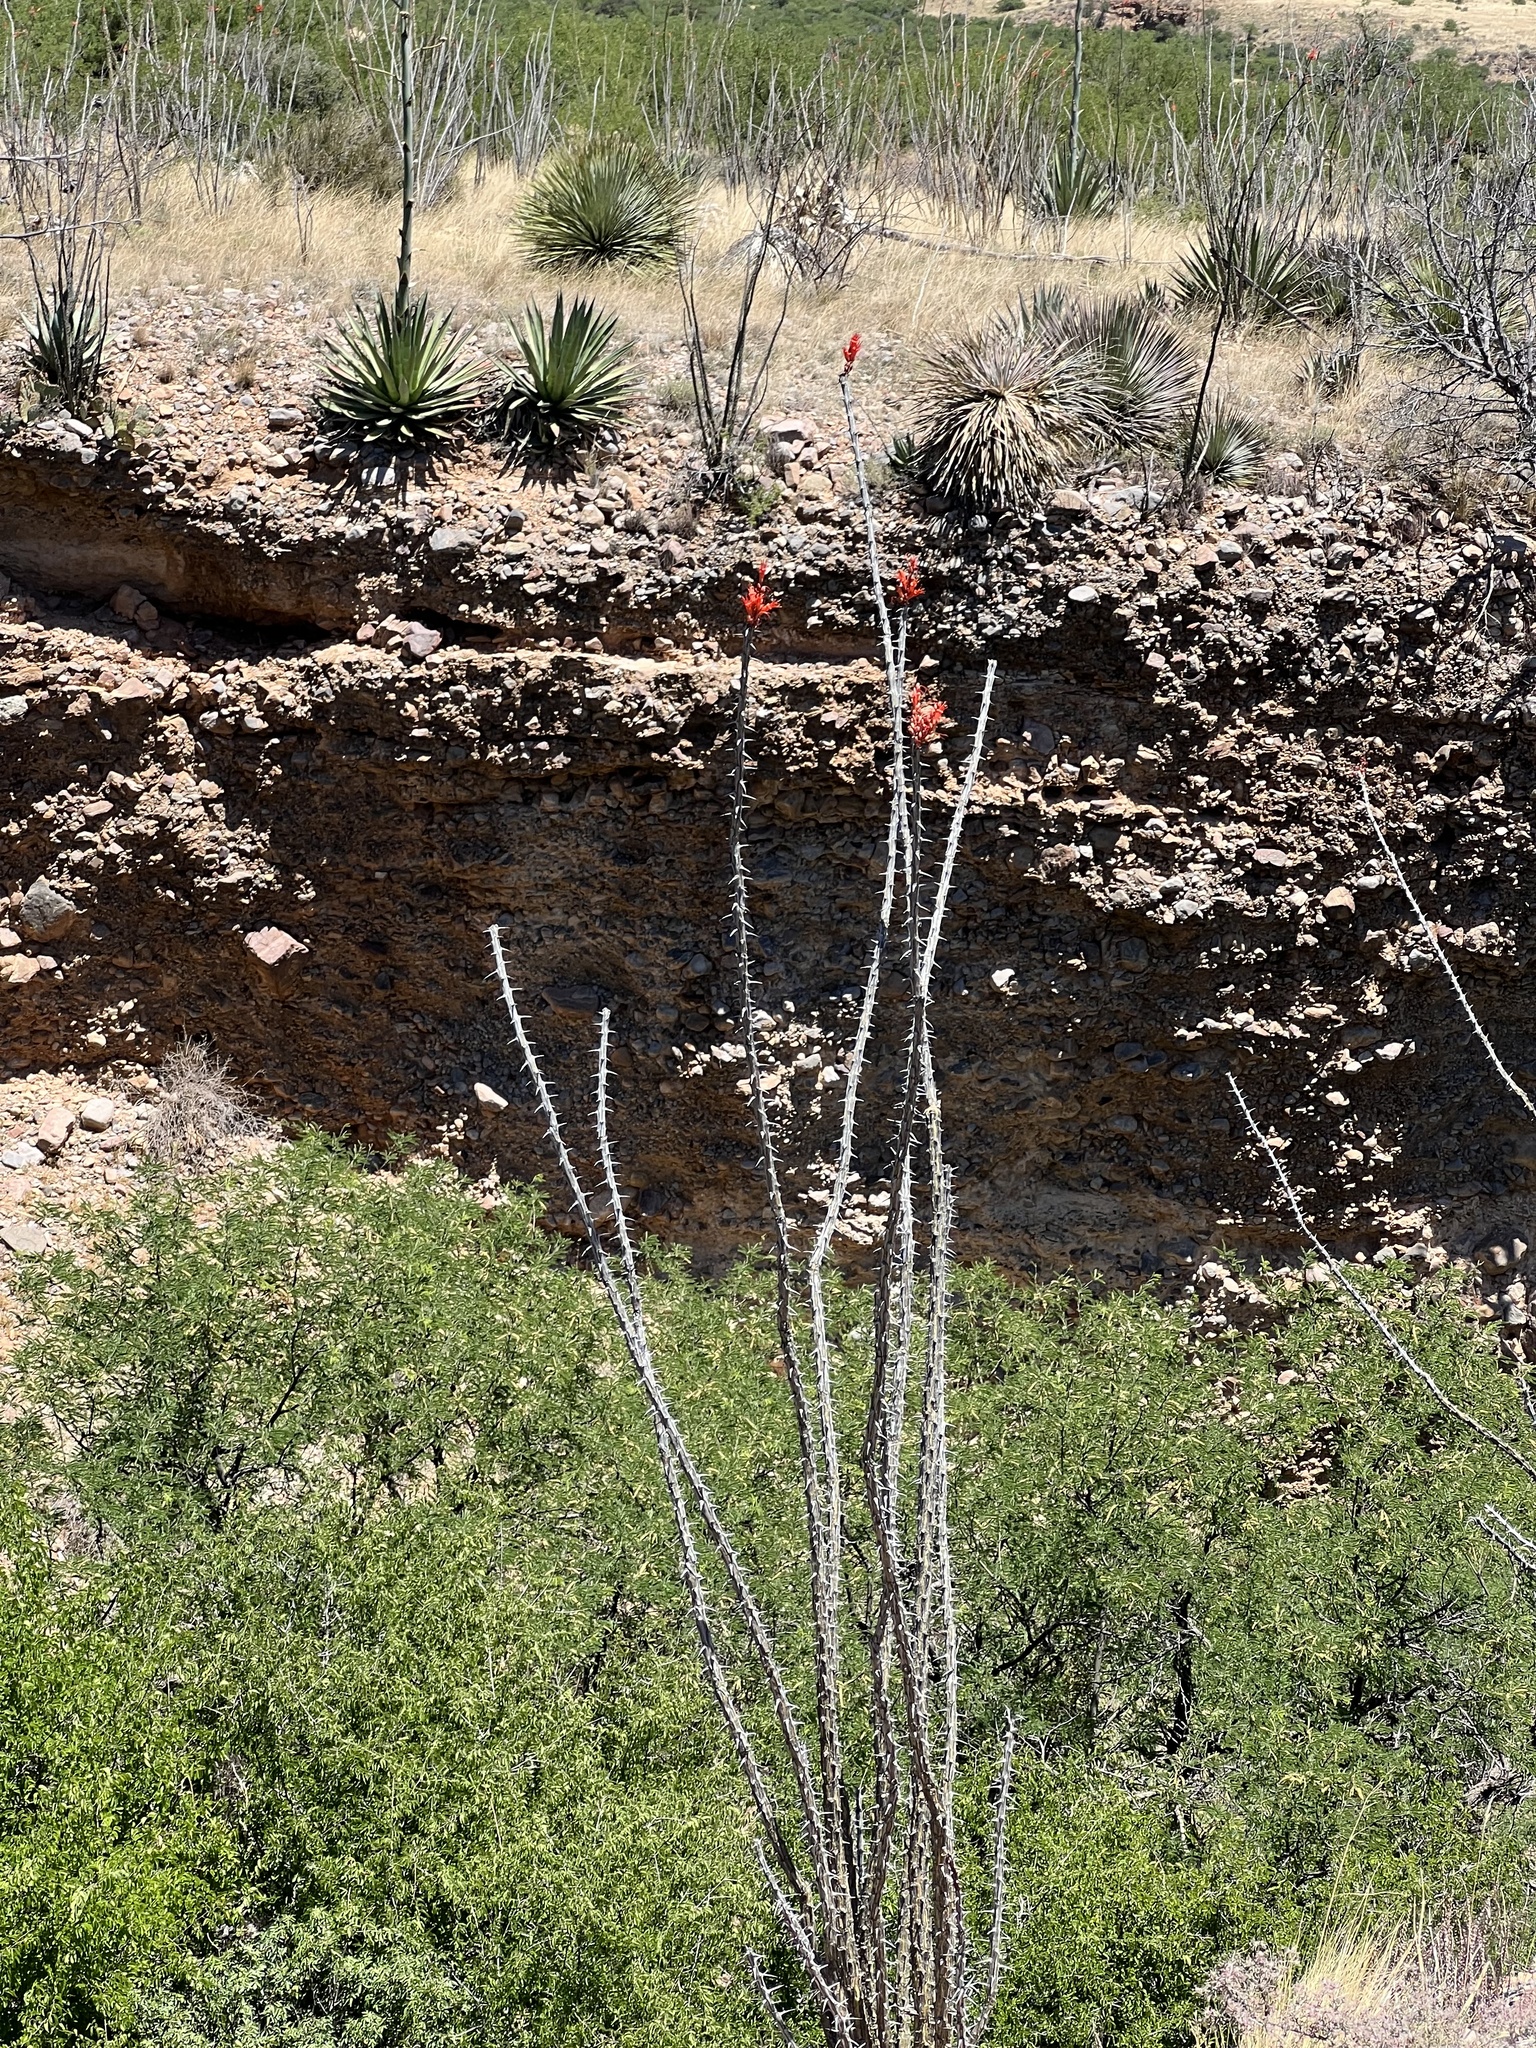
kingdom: Plantae
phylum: Tracheophyta
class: Magnoliopsida
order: Ericales
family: Fouquieriaceae
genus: Fouquieria
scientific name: Fouquieria splendens
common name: Vine-cactus
